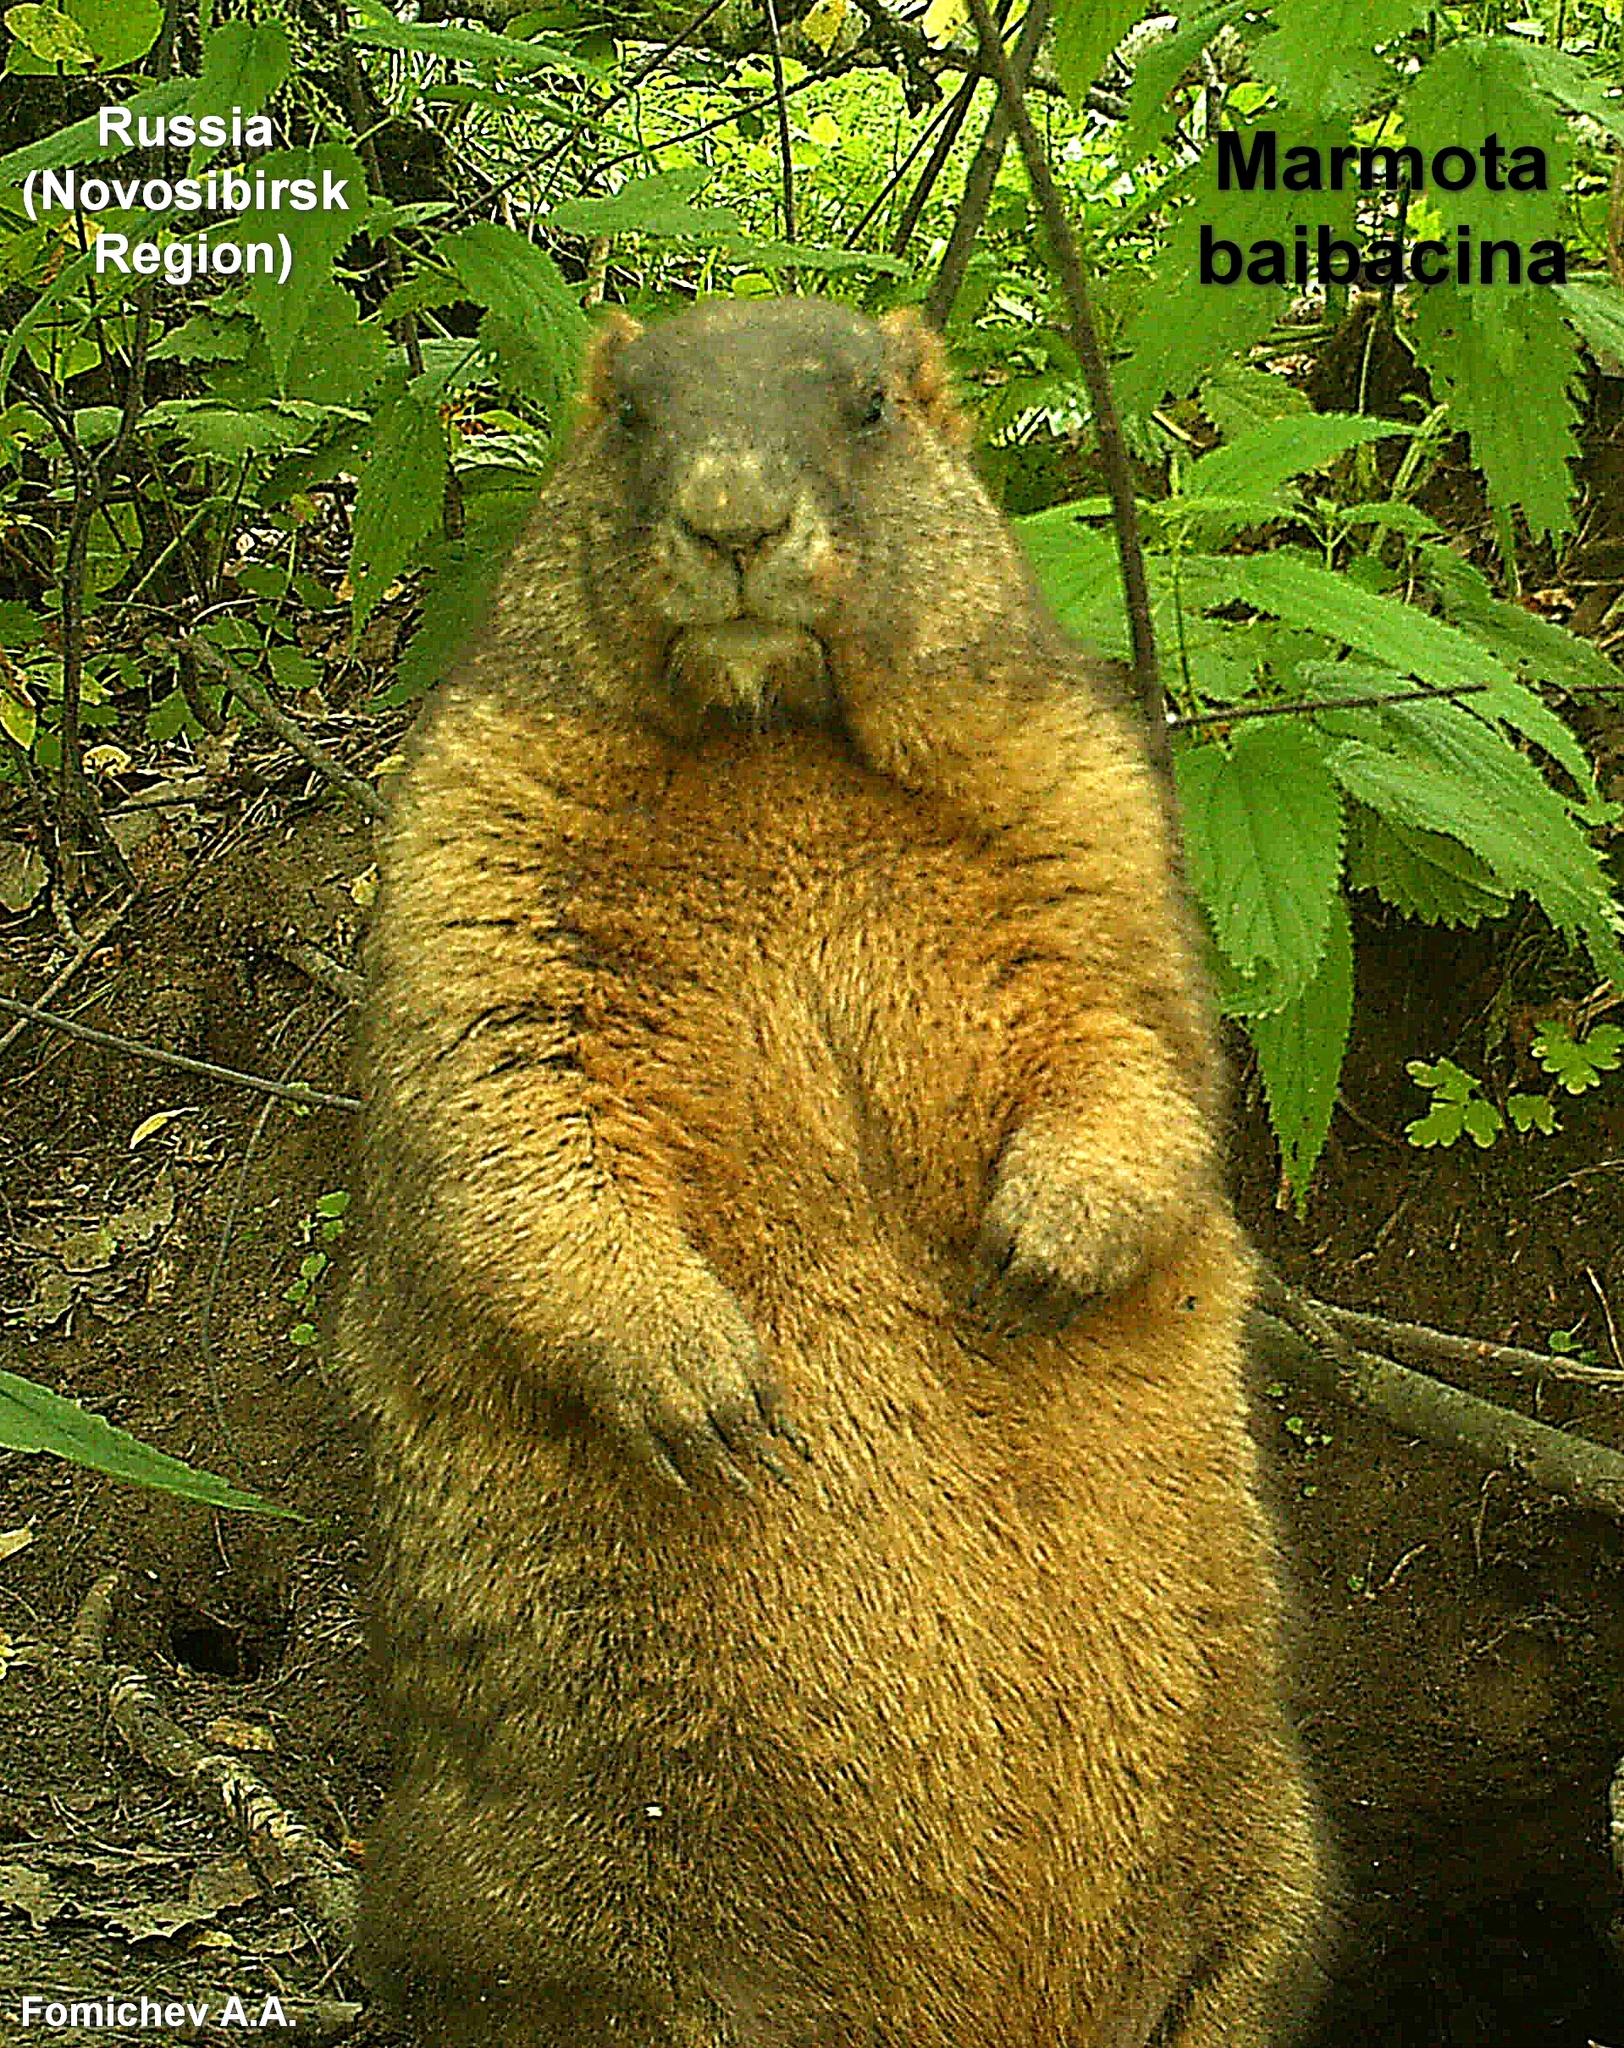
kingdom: Animalia
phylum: Chordata
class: Mammalia
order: Rodentia
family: Sciuridae
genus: Marmota
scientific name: Marmota kastschenkoi
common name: Forest steppe marmot
